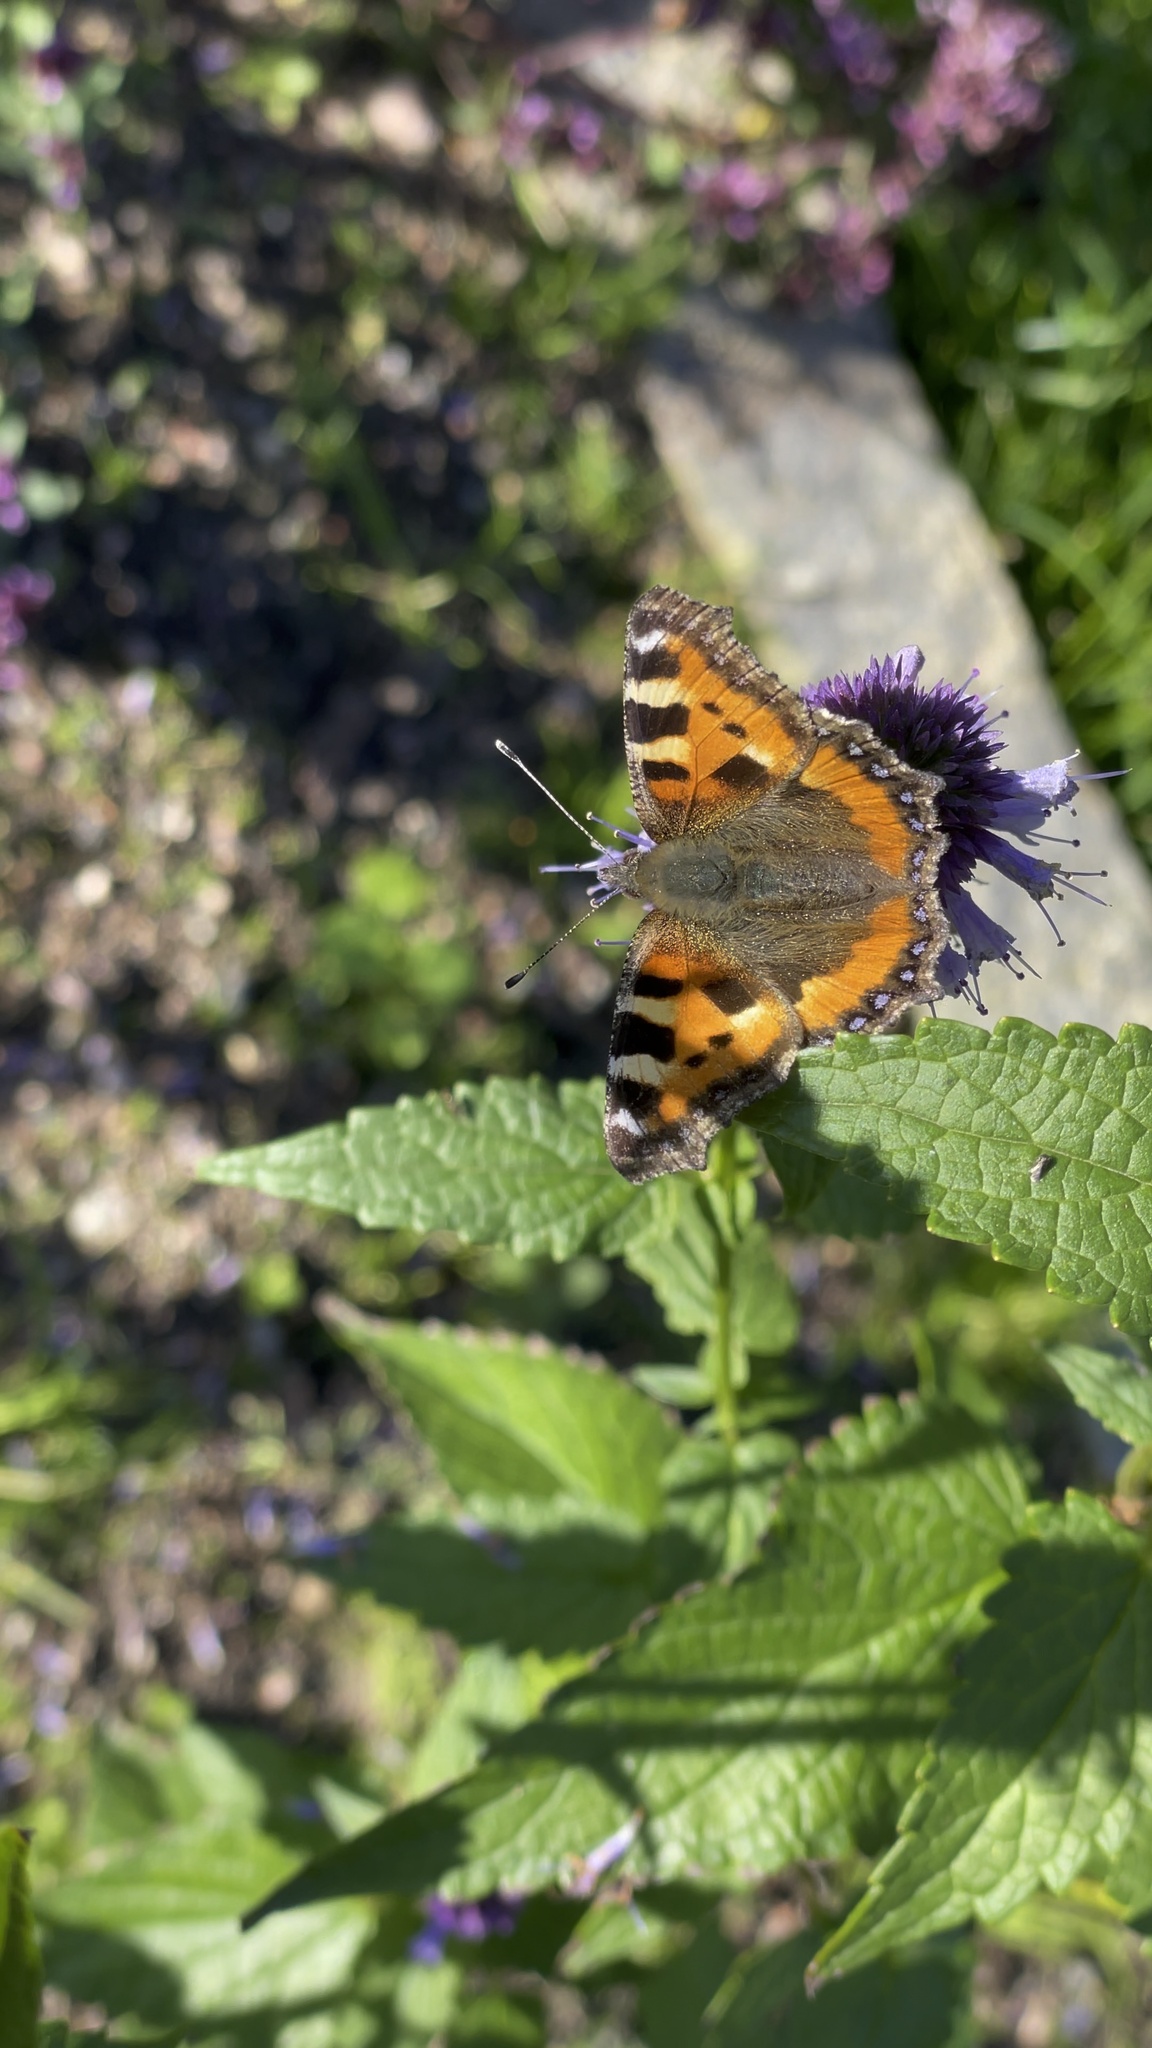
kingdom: Animalia
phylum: Arthropoda
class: Insecta
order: Lepidoptera
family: Nymphalidae
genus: Aglais
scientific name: Aglais urticae
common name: Small tortoiseshell
